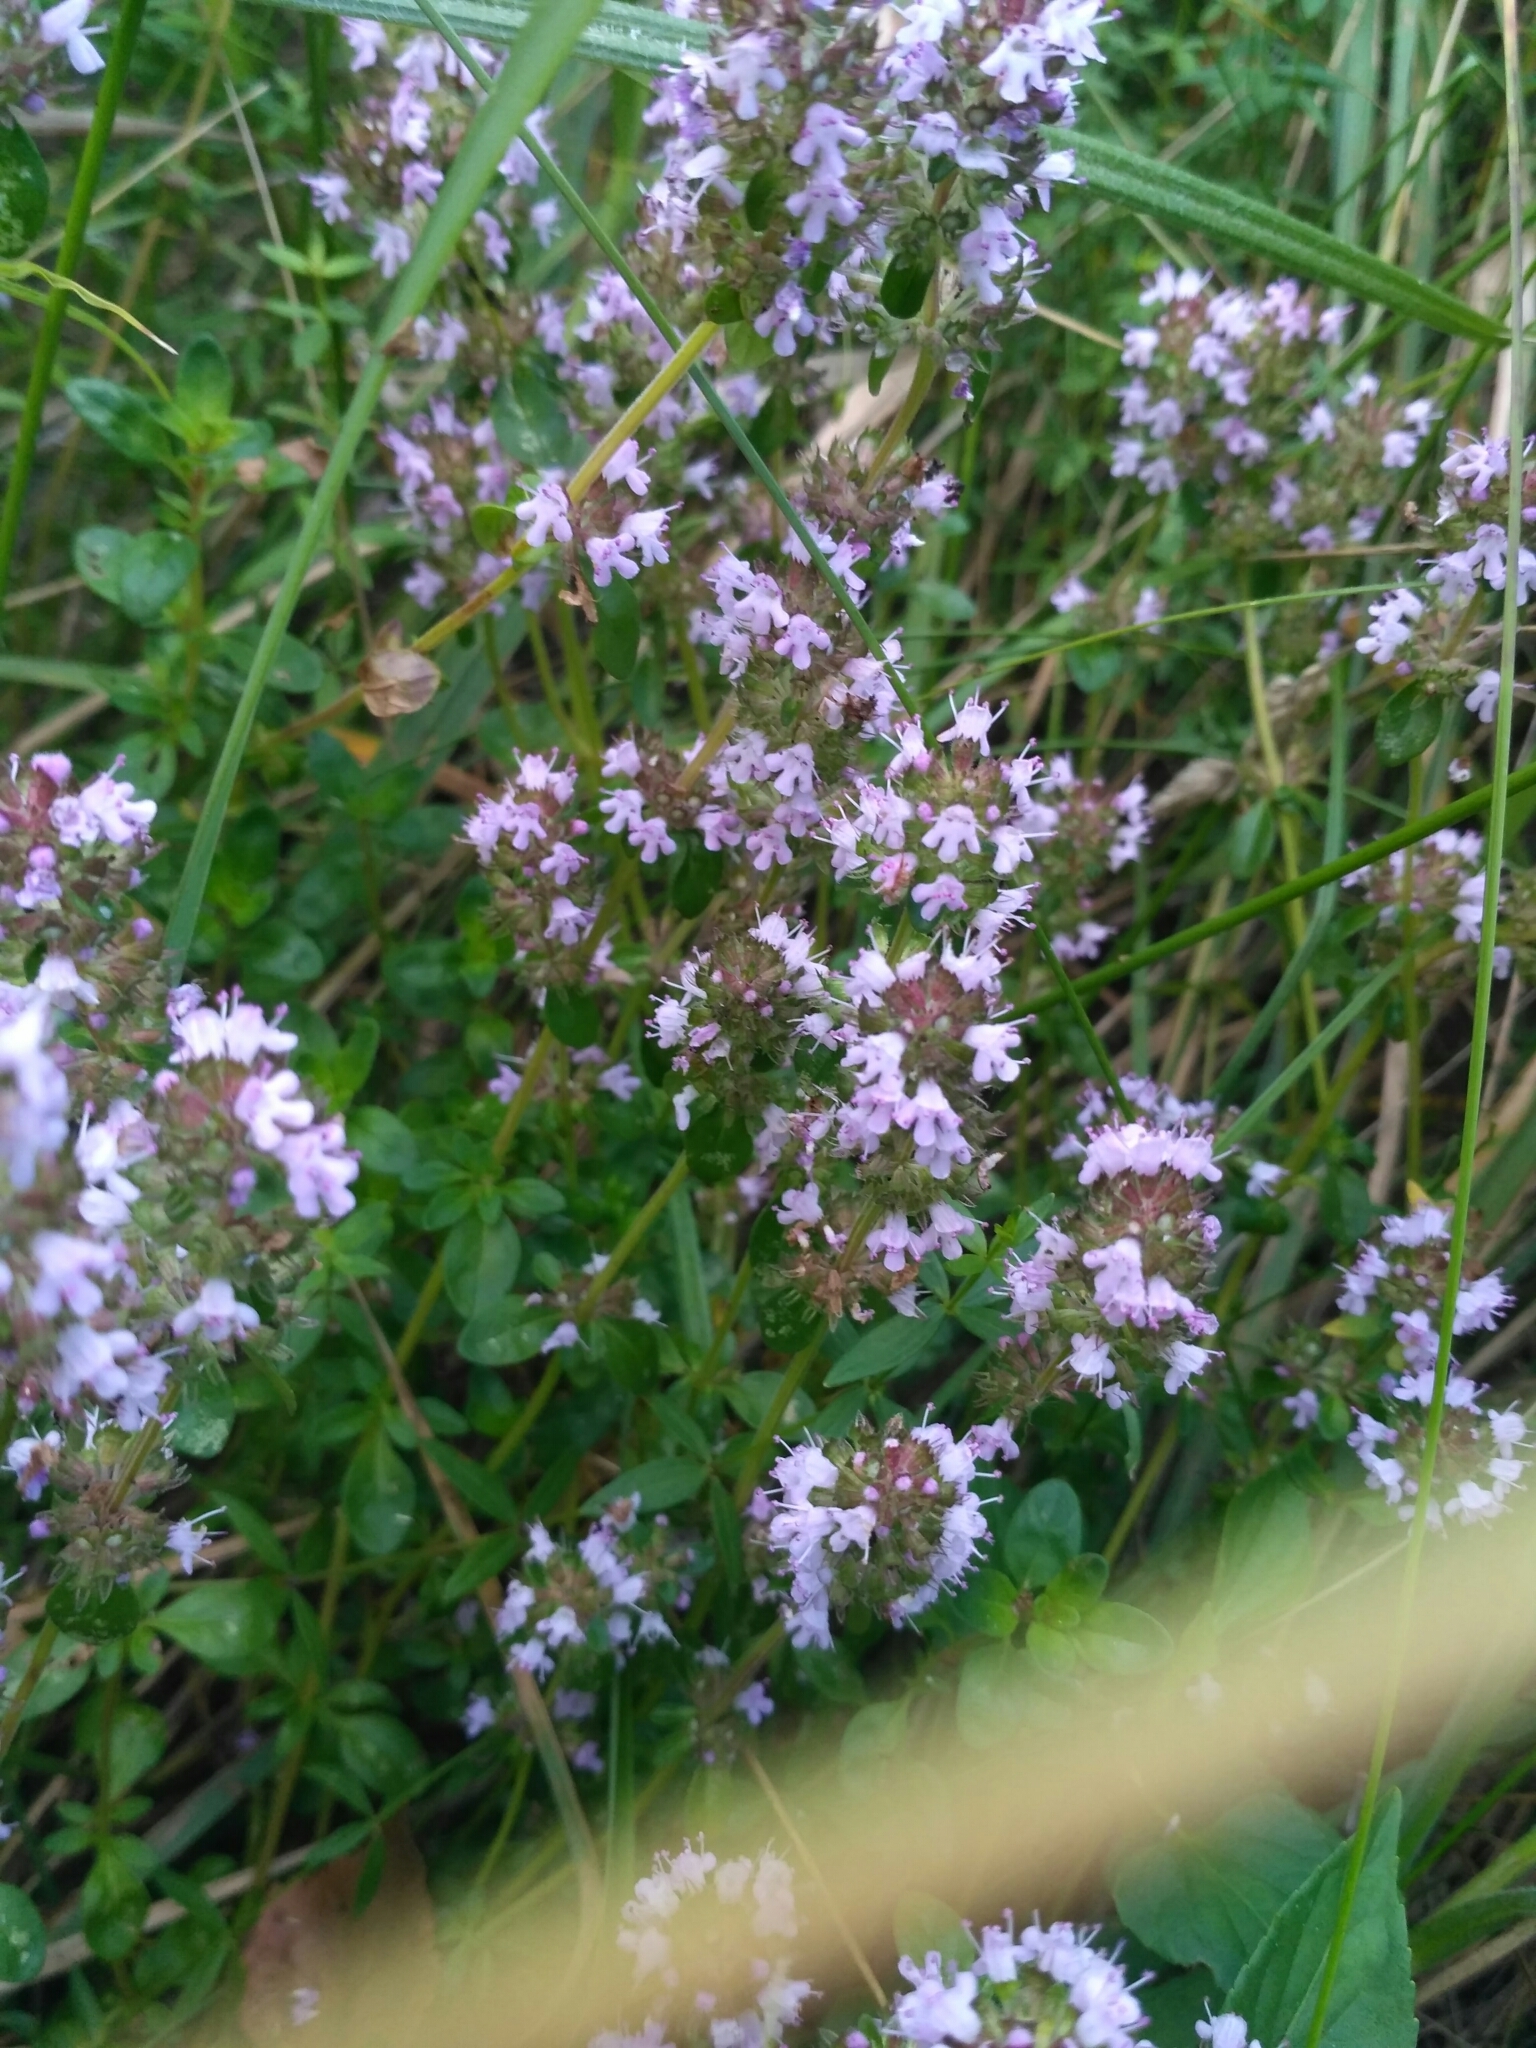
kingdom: Plantae
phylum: Tracheophyta
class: Magnoliopsida
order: Lamiales
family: Lamiaceae
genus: Thymus
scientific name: Thymus pulegioides
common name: Large thyme
